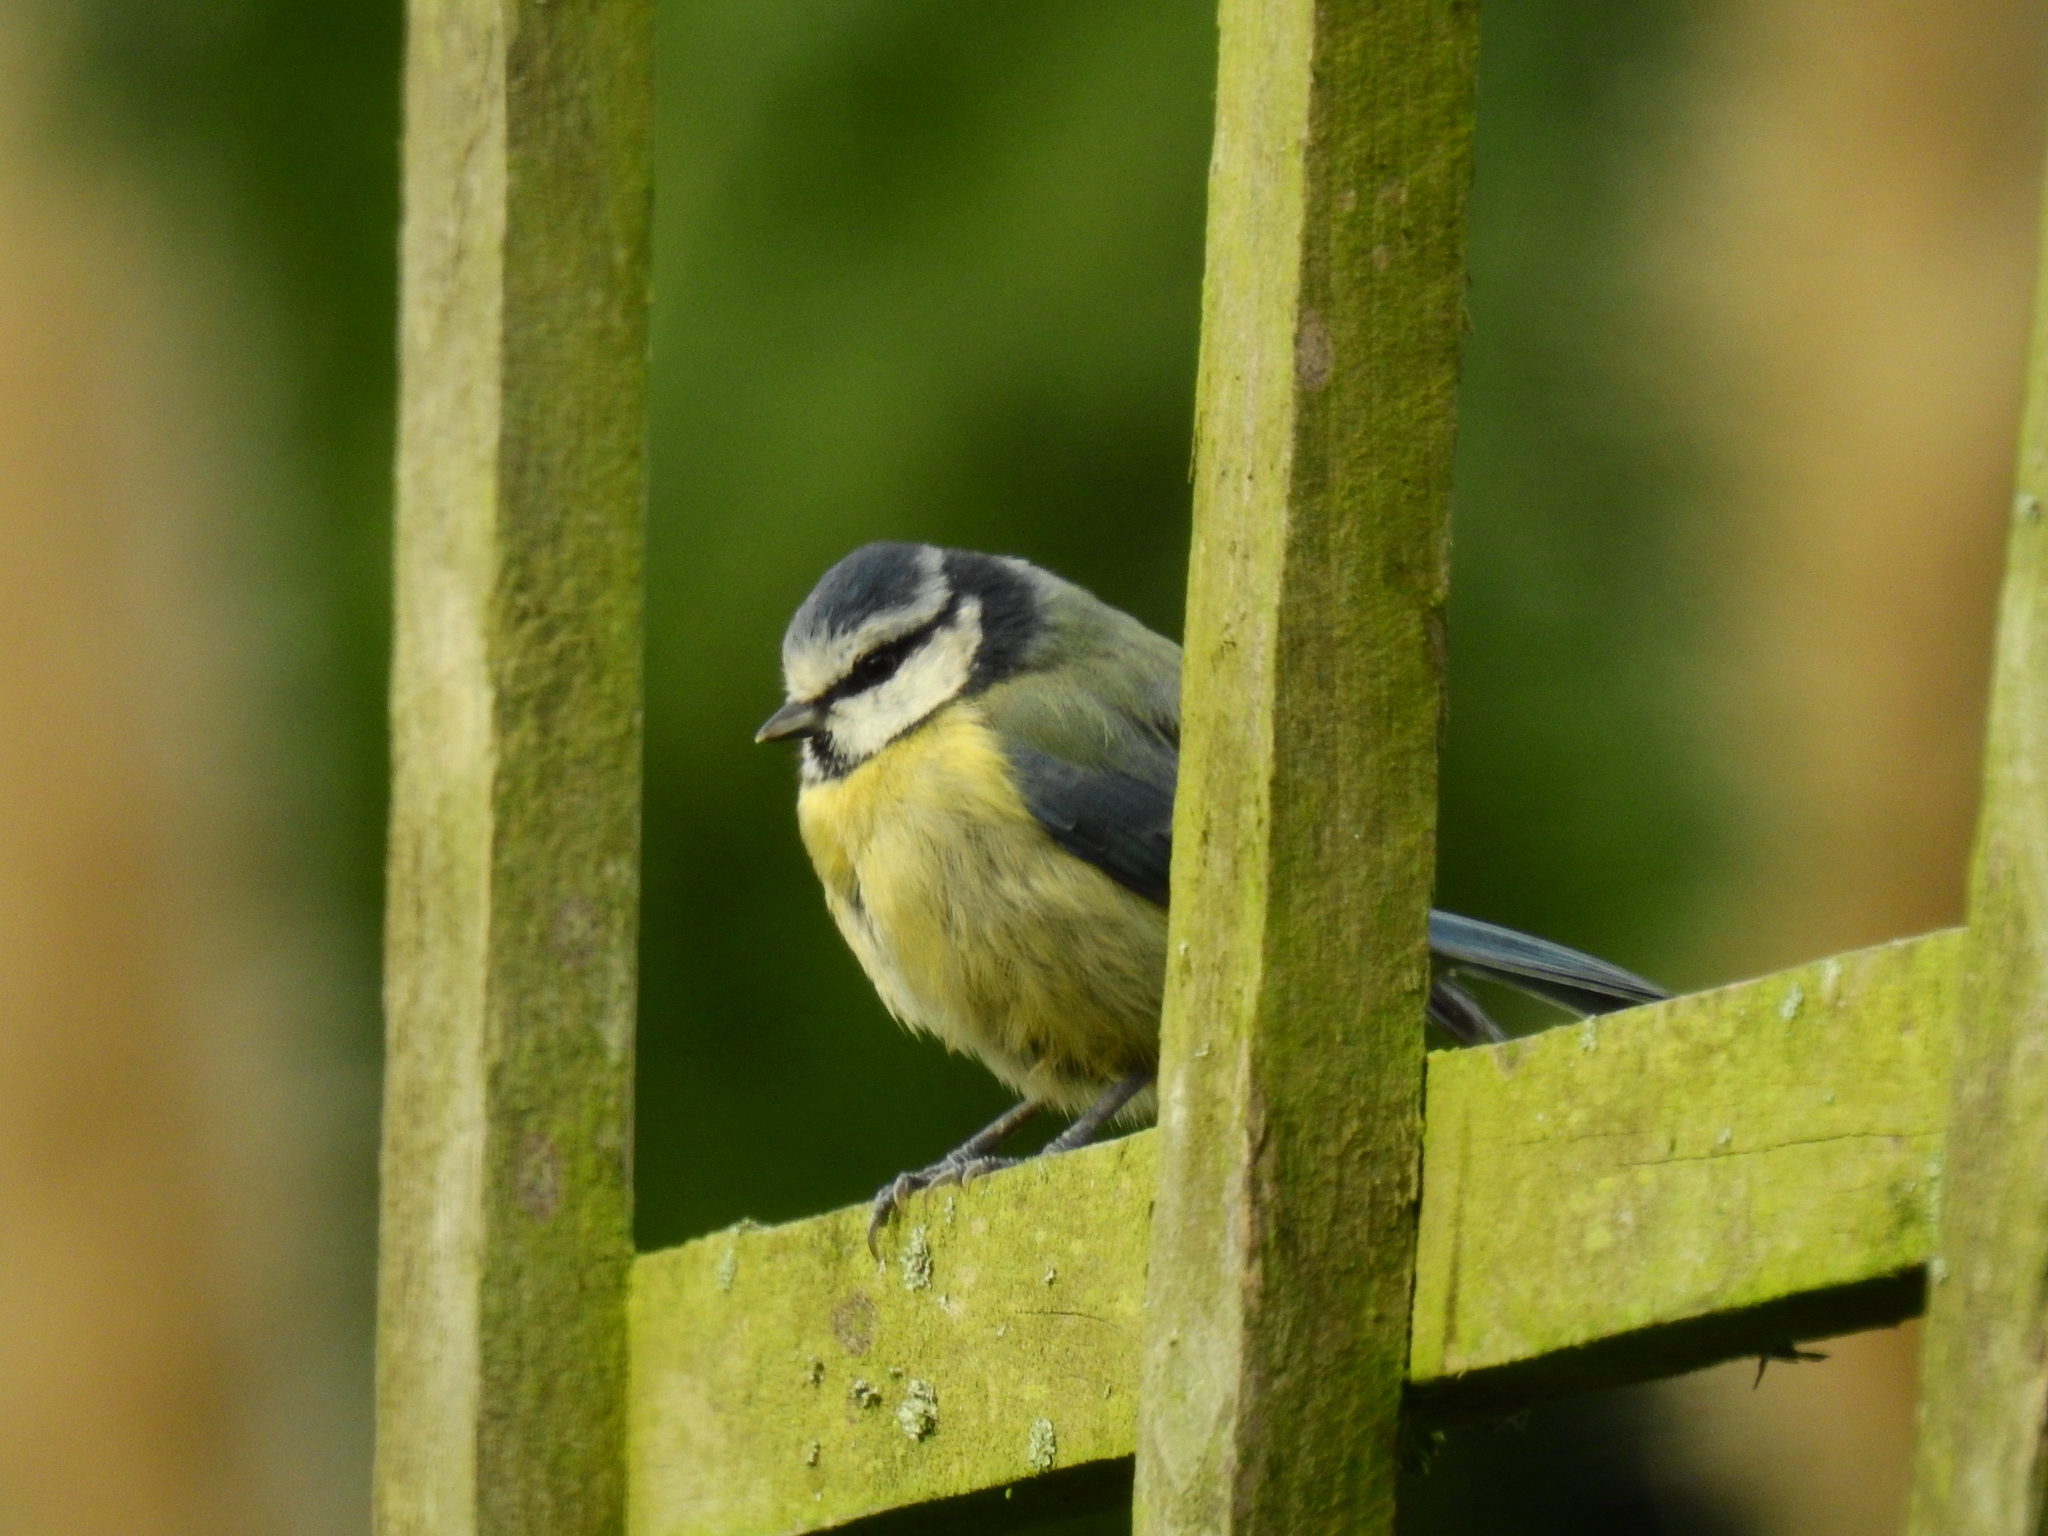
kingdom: Animalia
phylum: Chordata
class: Aves
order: Passeriformes
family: Paridae
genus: Cyanistes
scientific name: Cyanistes caeruleus
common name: Eurasian blue tit
